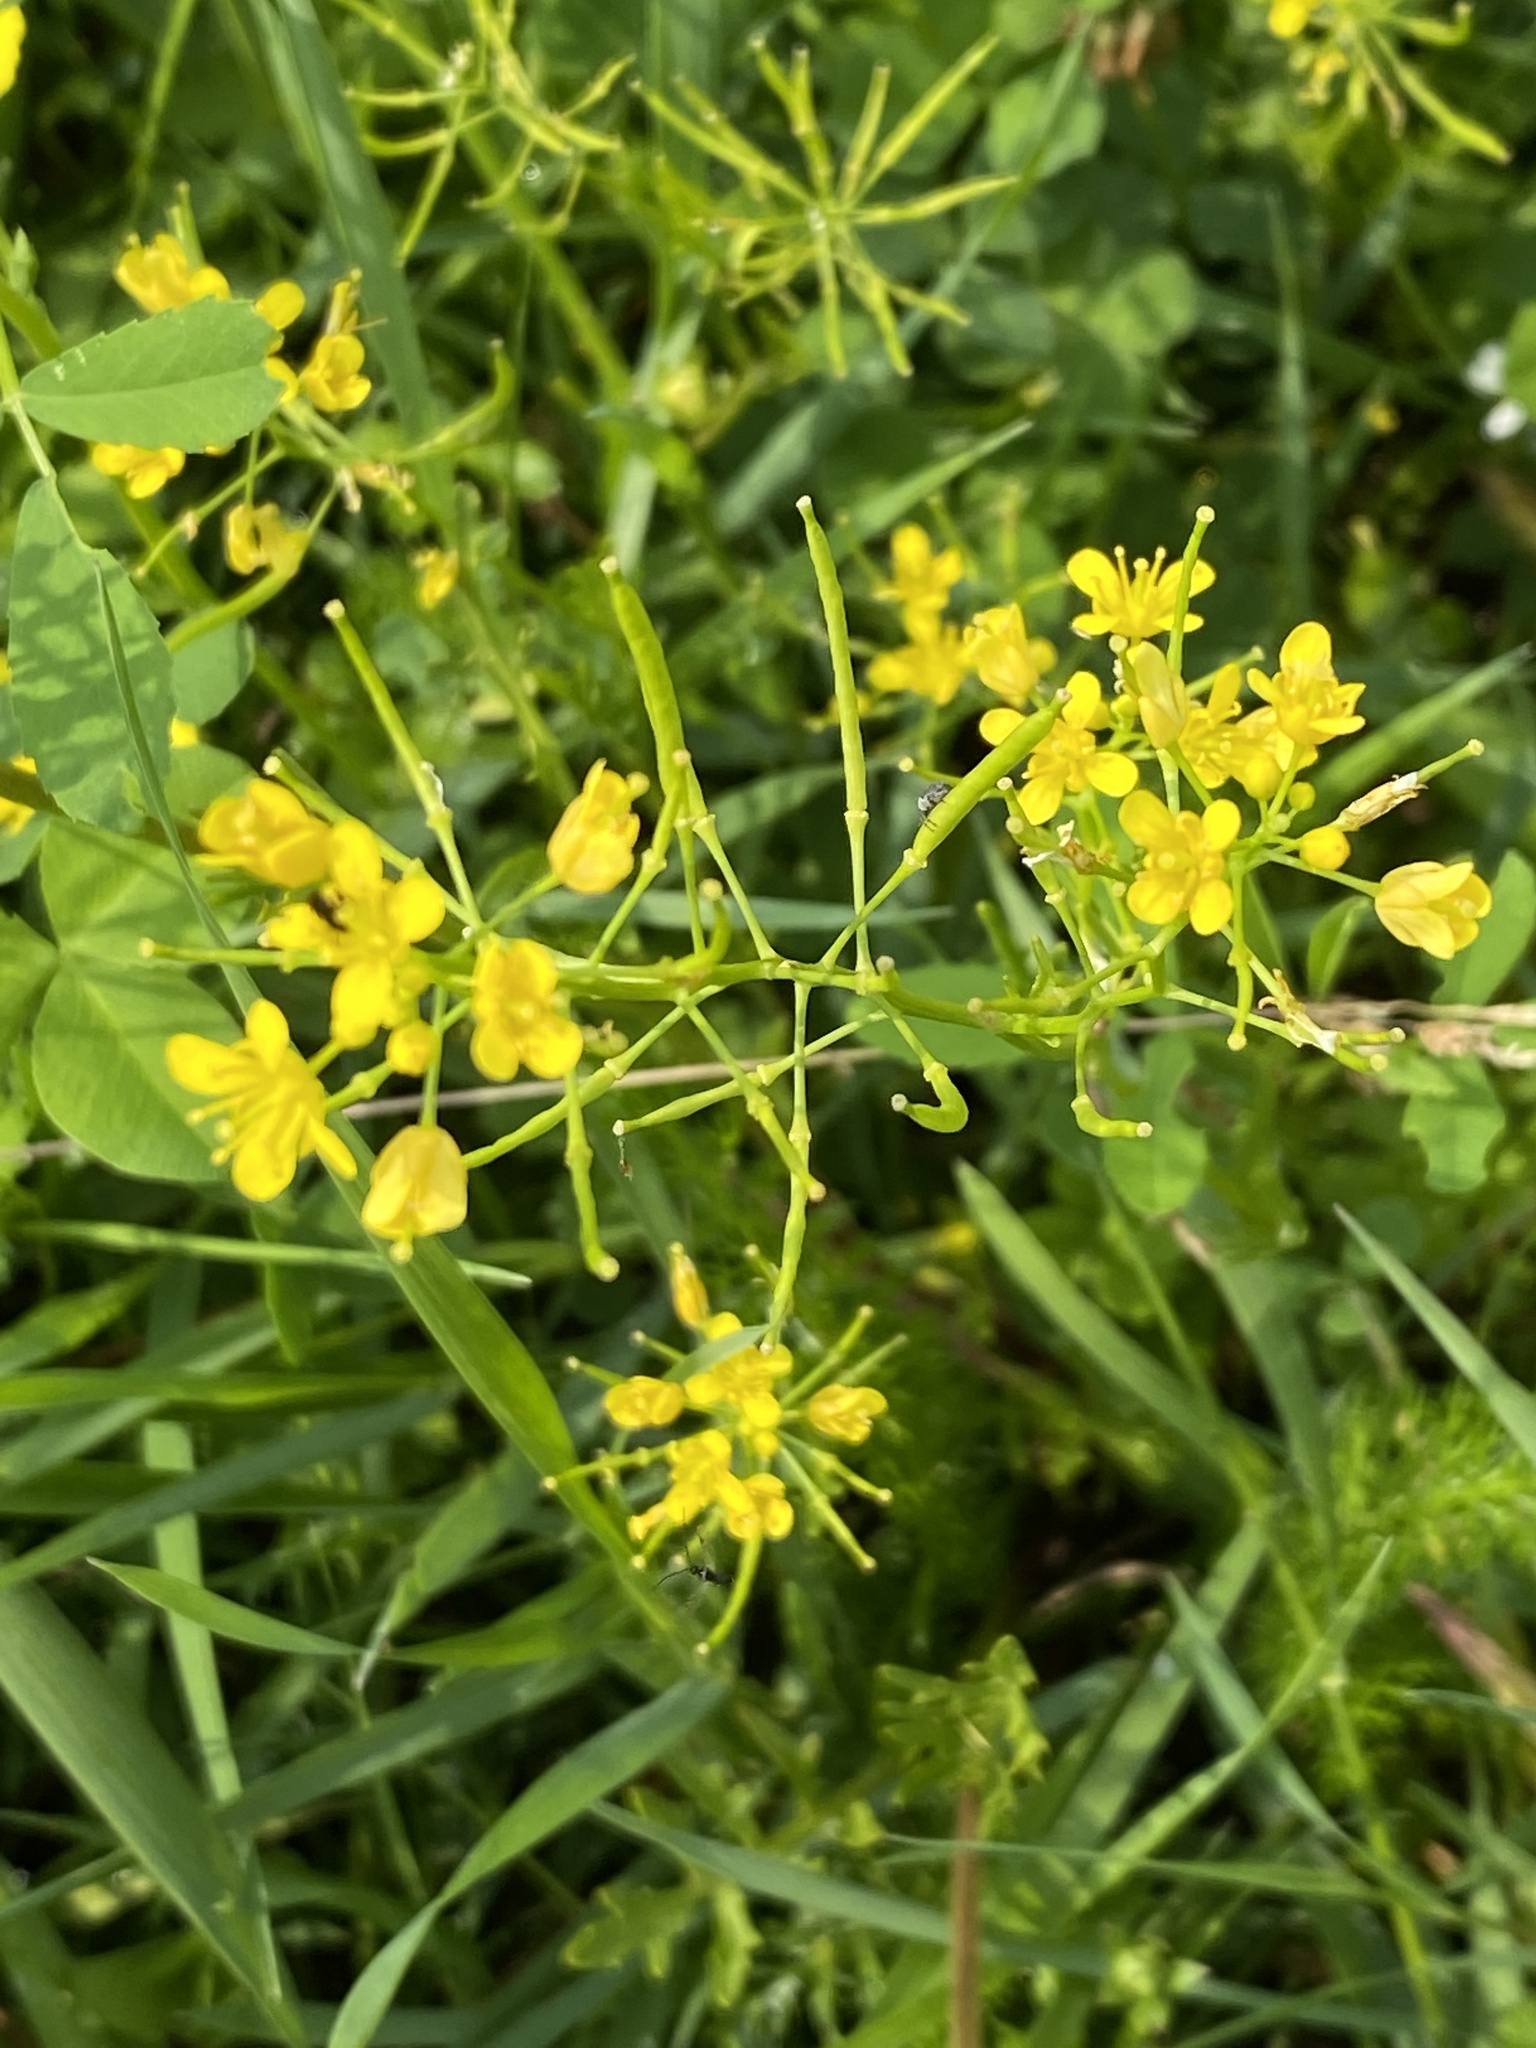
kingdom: Plantae
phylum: Tracheophyta
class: Magnoliopsida
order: Brassicales
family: Brassicaceae
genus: Rorippa
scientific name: Rorippa sylvestris
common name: Creeping yellowcress
